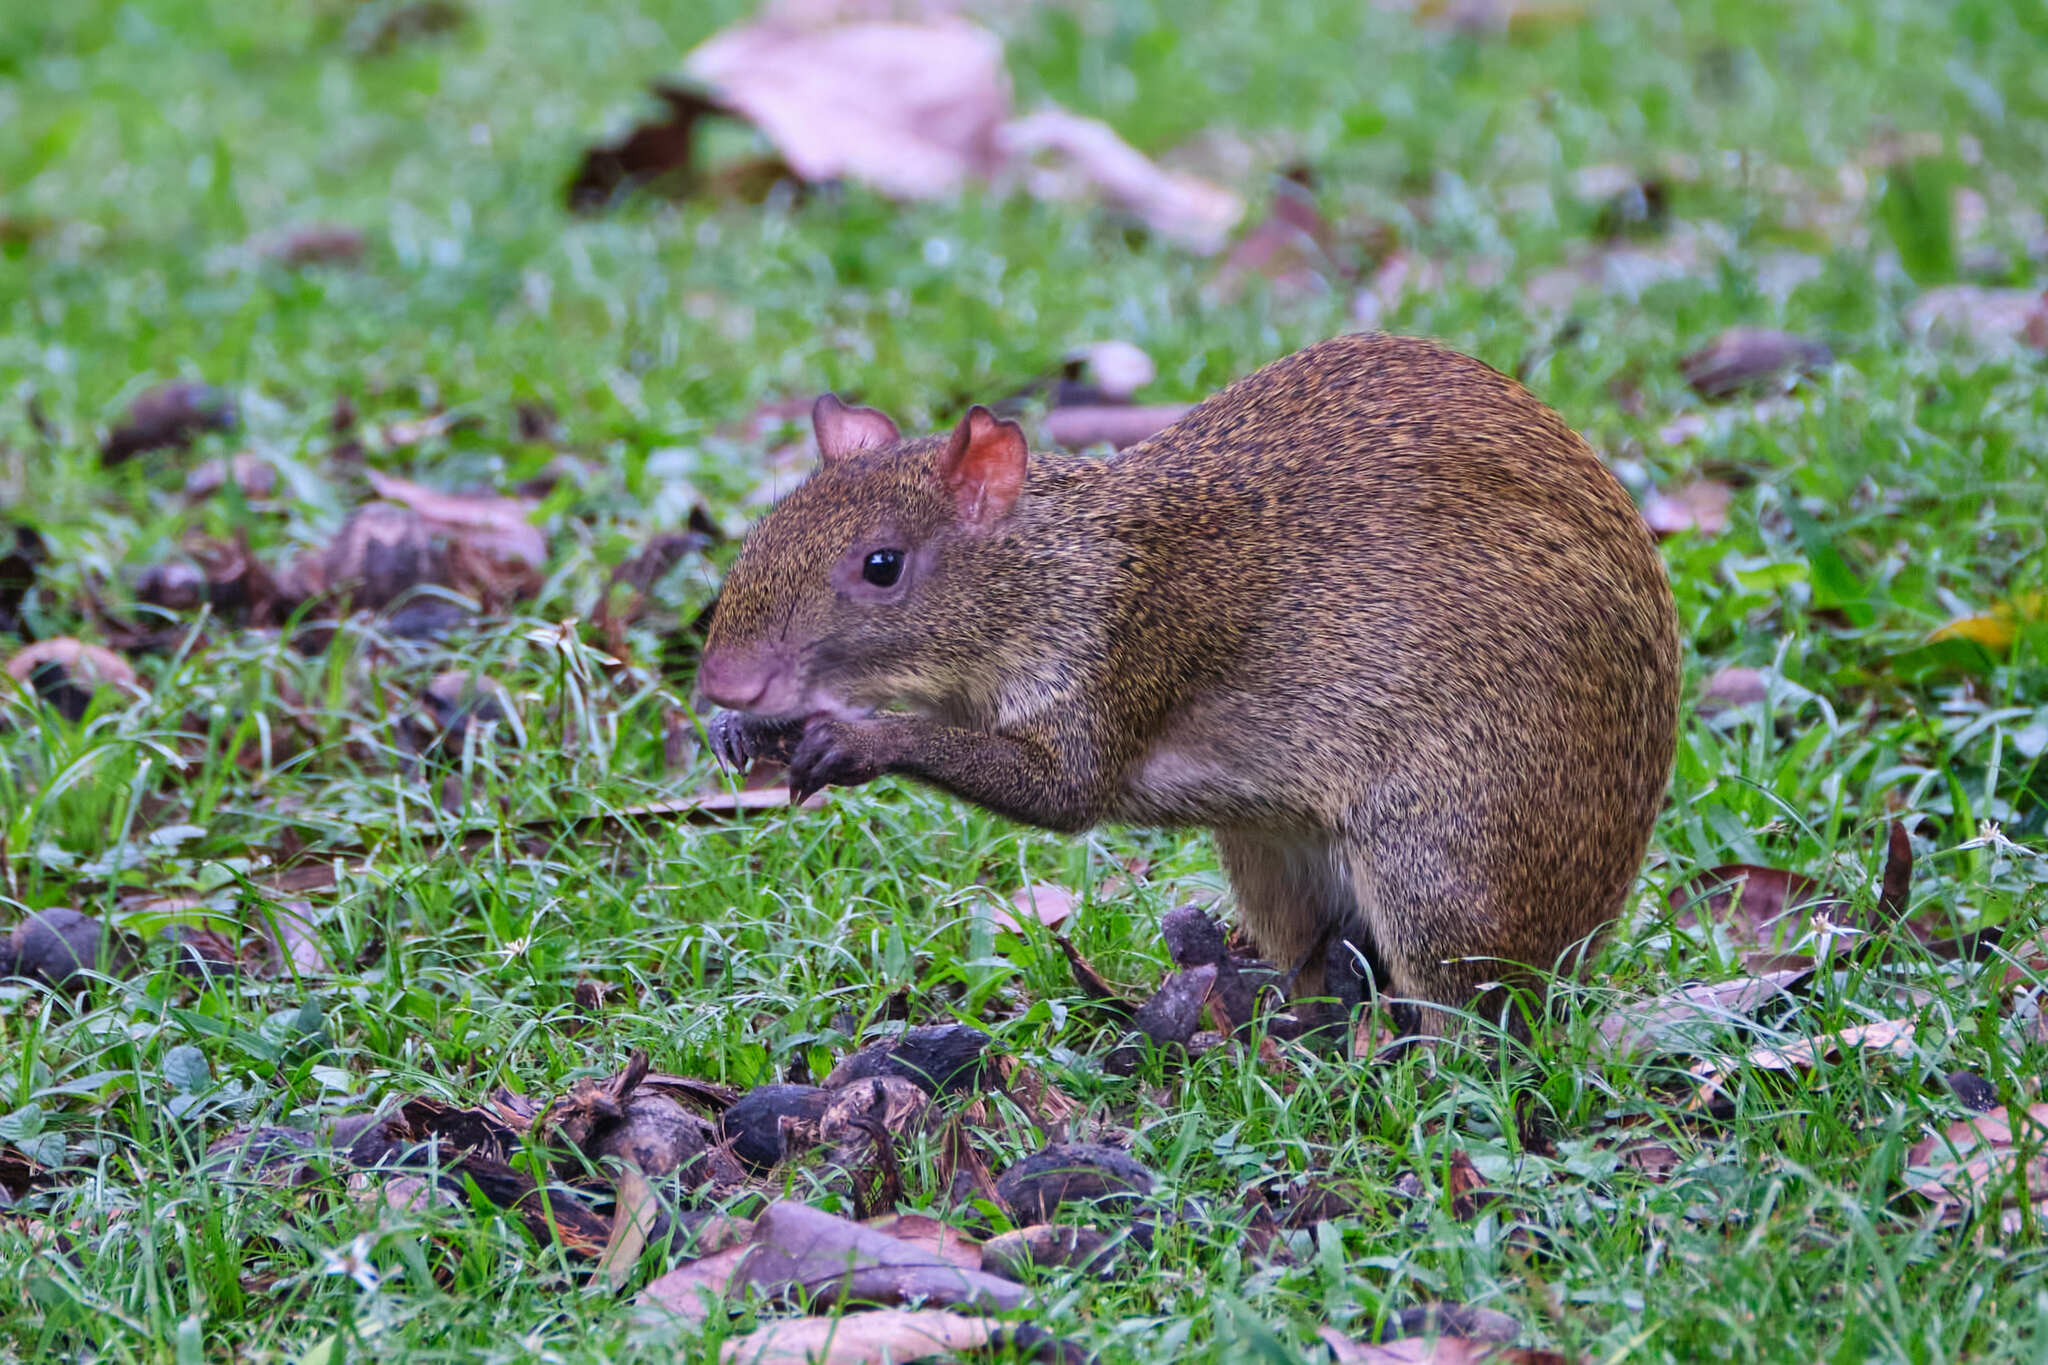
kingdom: Animalia
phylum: Chordata
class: Mammalia
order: Rodentia
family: Dasyproctidae
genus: Dasyprocta
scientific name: Dasyprocta punctata
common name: Central american agouti
